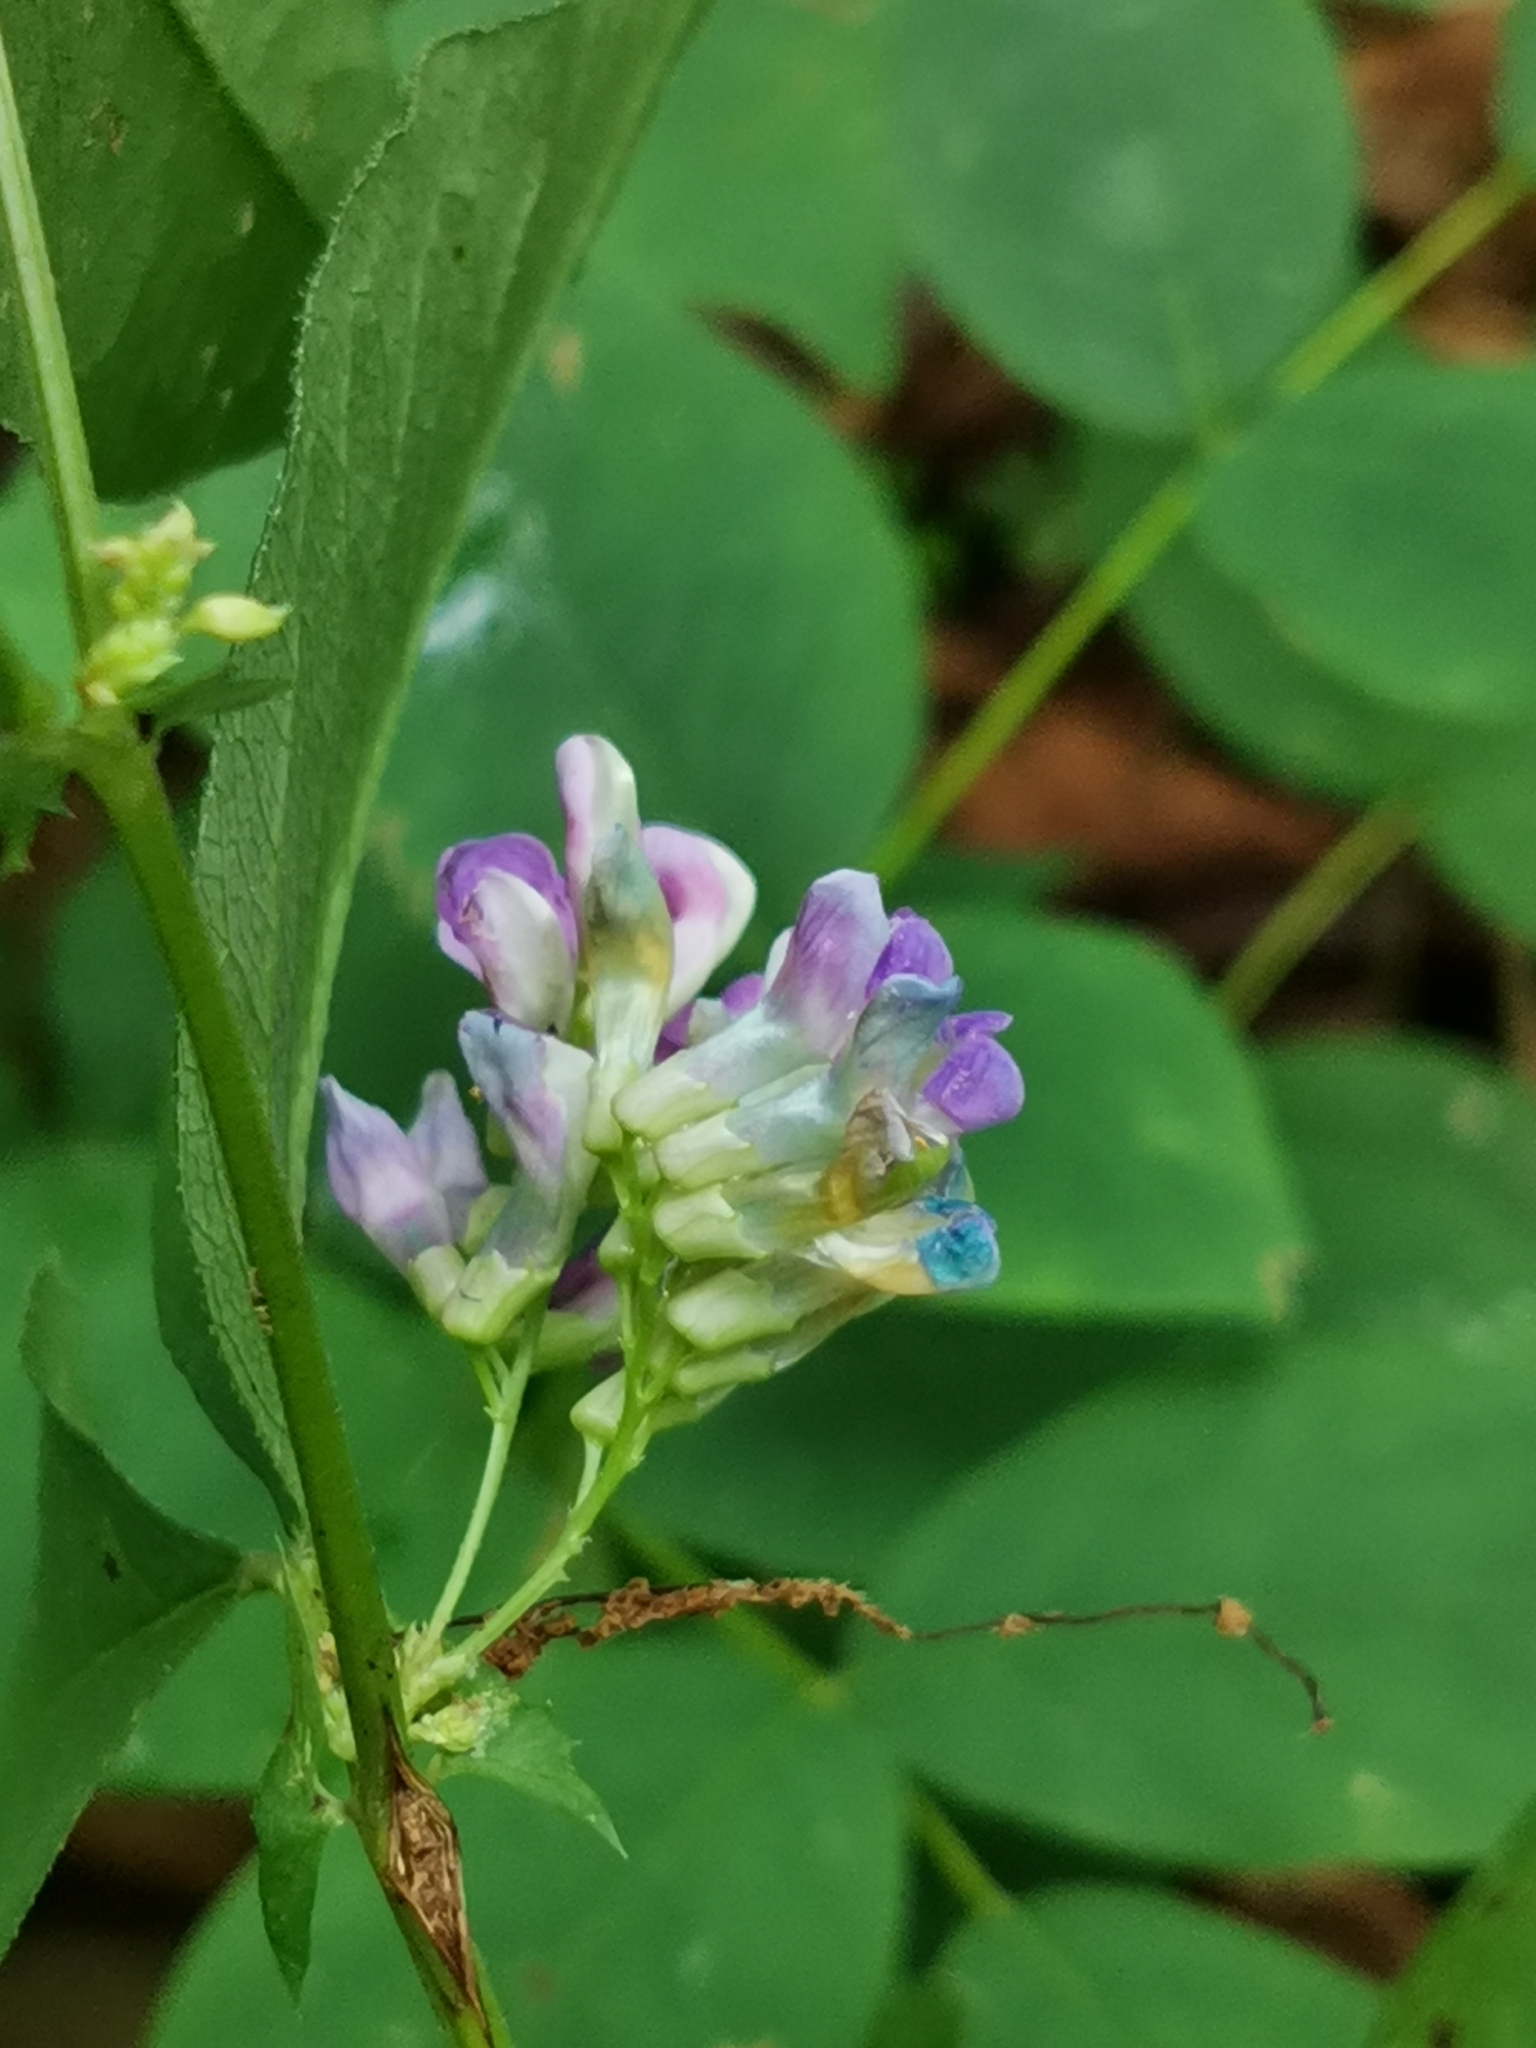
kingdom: Plantae
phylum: Tracheophyta
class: Magnoliopsida
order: Fabales
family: Fabaceae
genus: Vicia
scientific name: Vicia unijuga
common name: Two-leaf vetch
